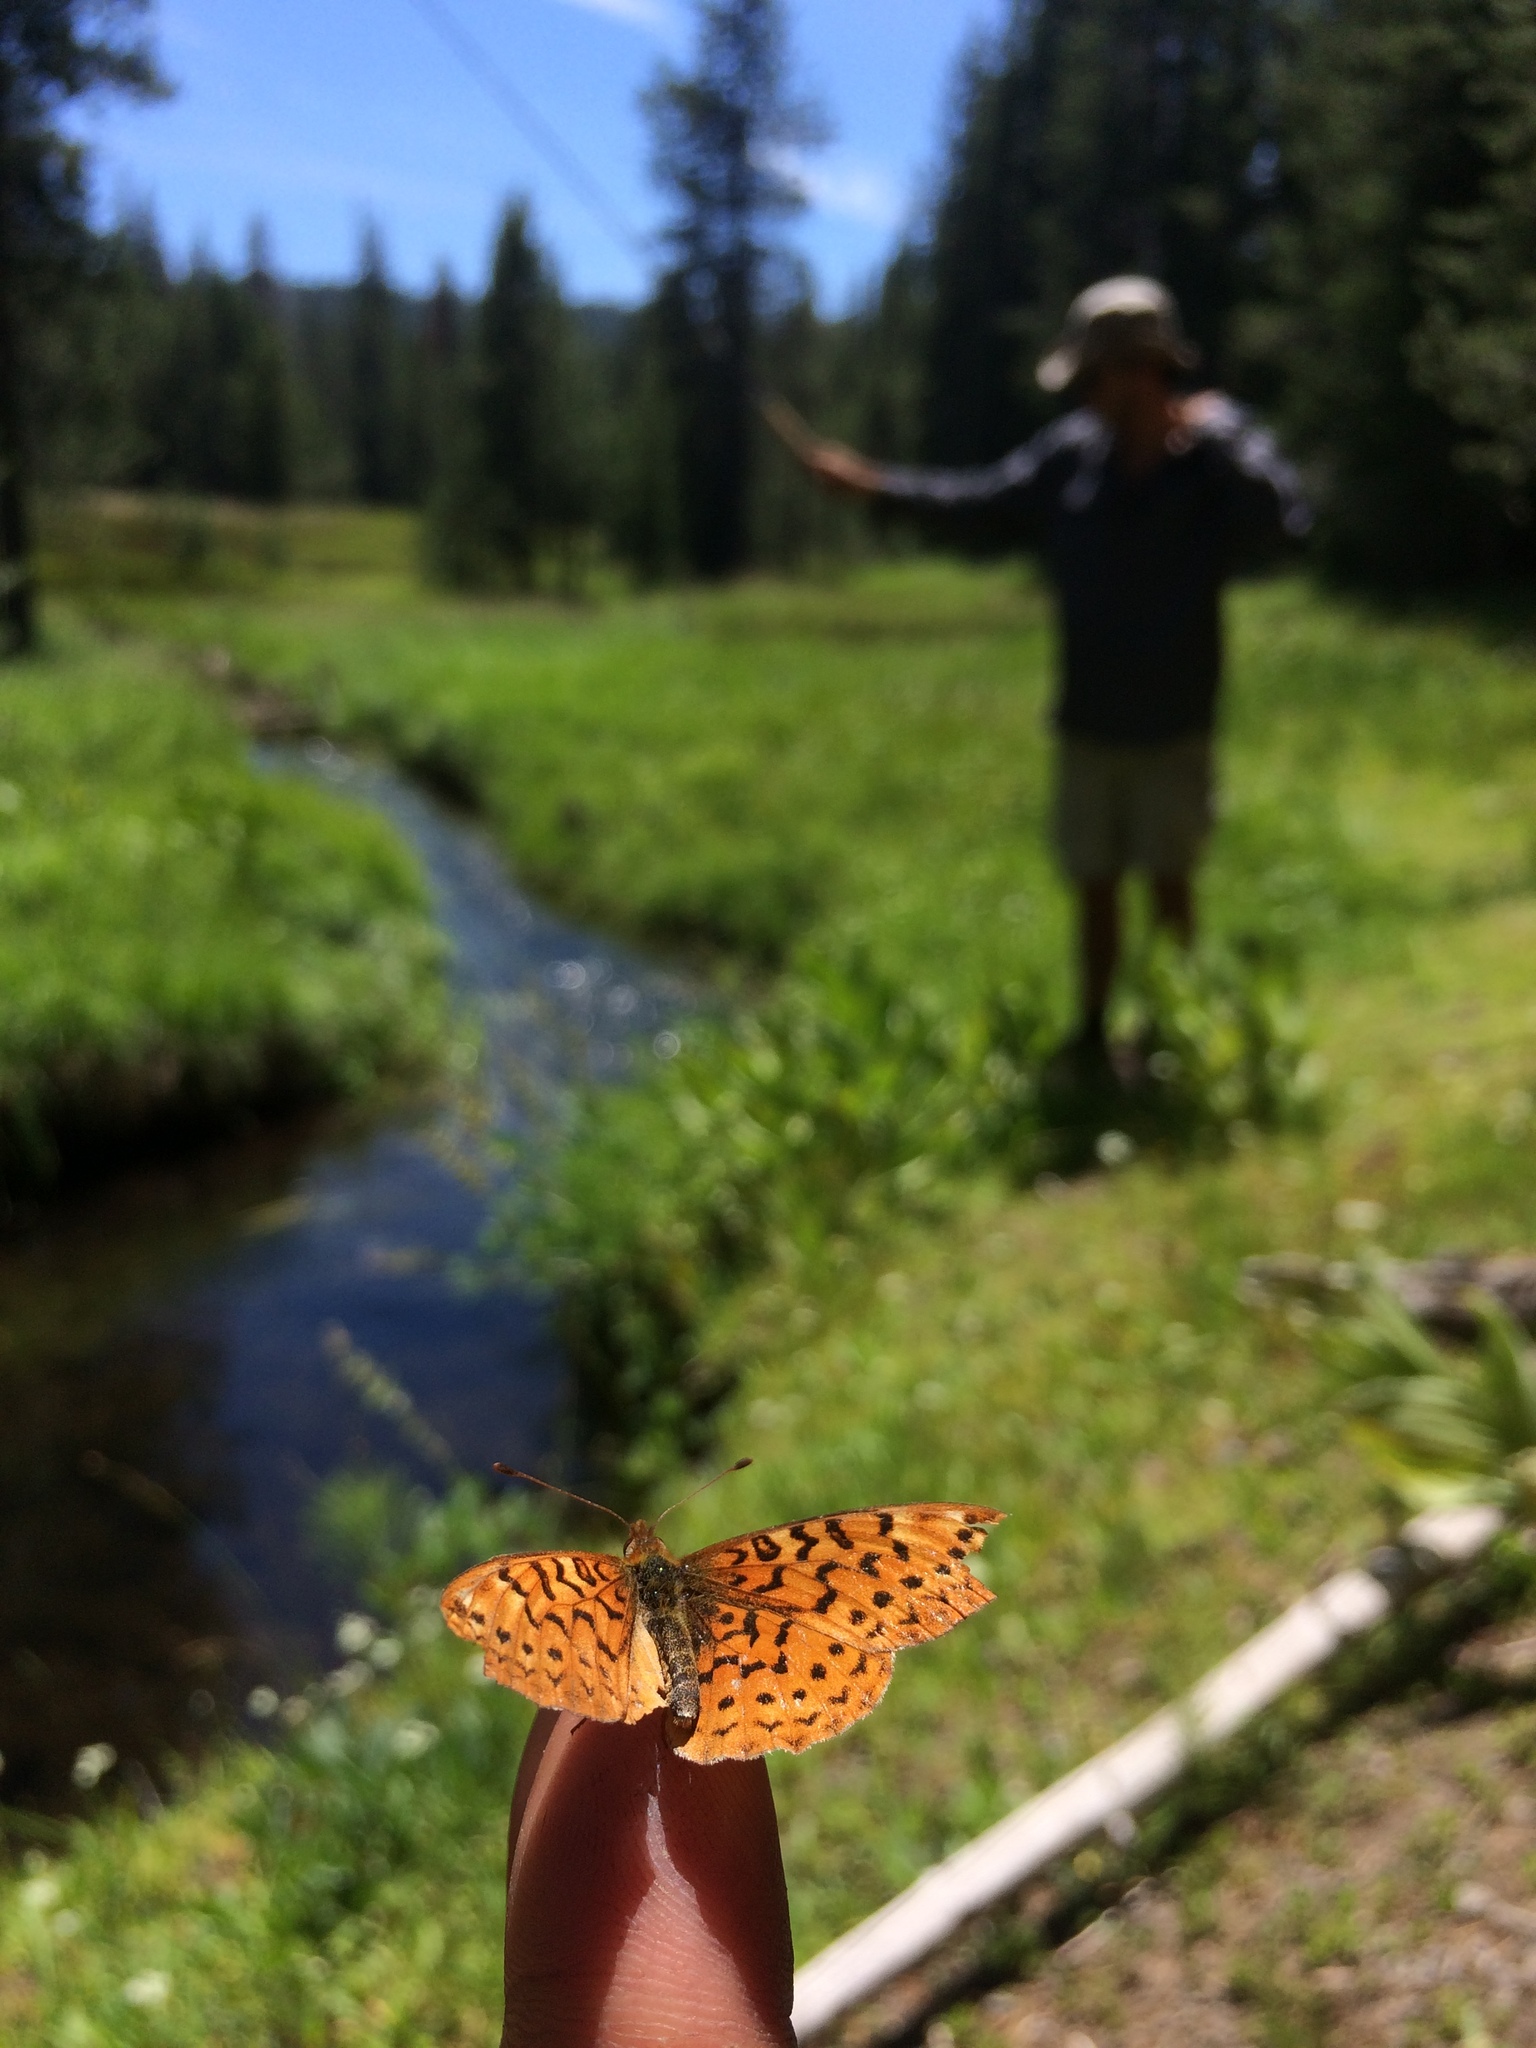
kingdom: Animalia
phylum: Arthropoda
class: Insecta
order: Lepidoptera
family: Nymphalidae
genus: Boloria
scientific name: Boloria epithore
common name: Pacific fritillary
